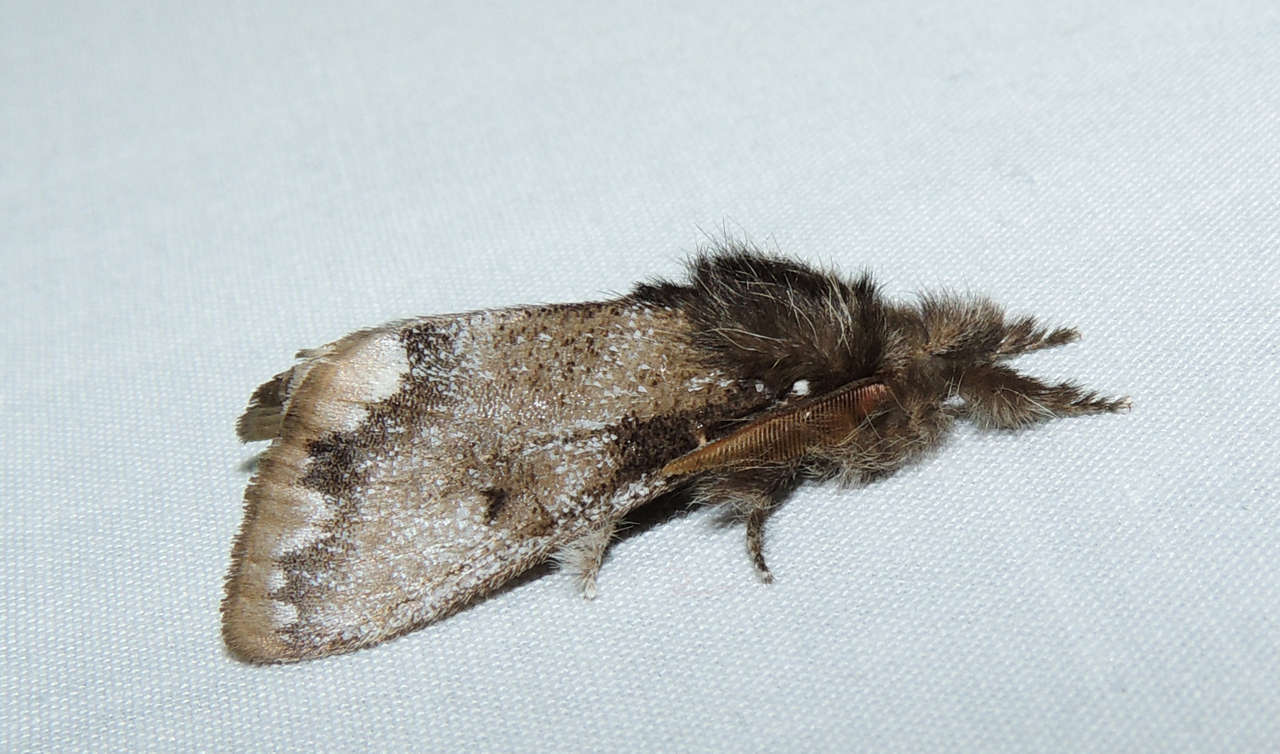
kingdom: Animalia
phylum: Arthropoda
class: Insecta
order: Lepidoptera
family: Erebidae
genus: Euproctis
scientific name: Euproctis
